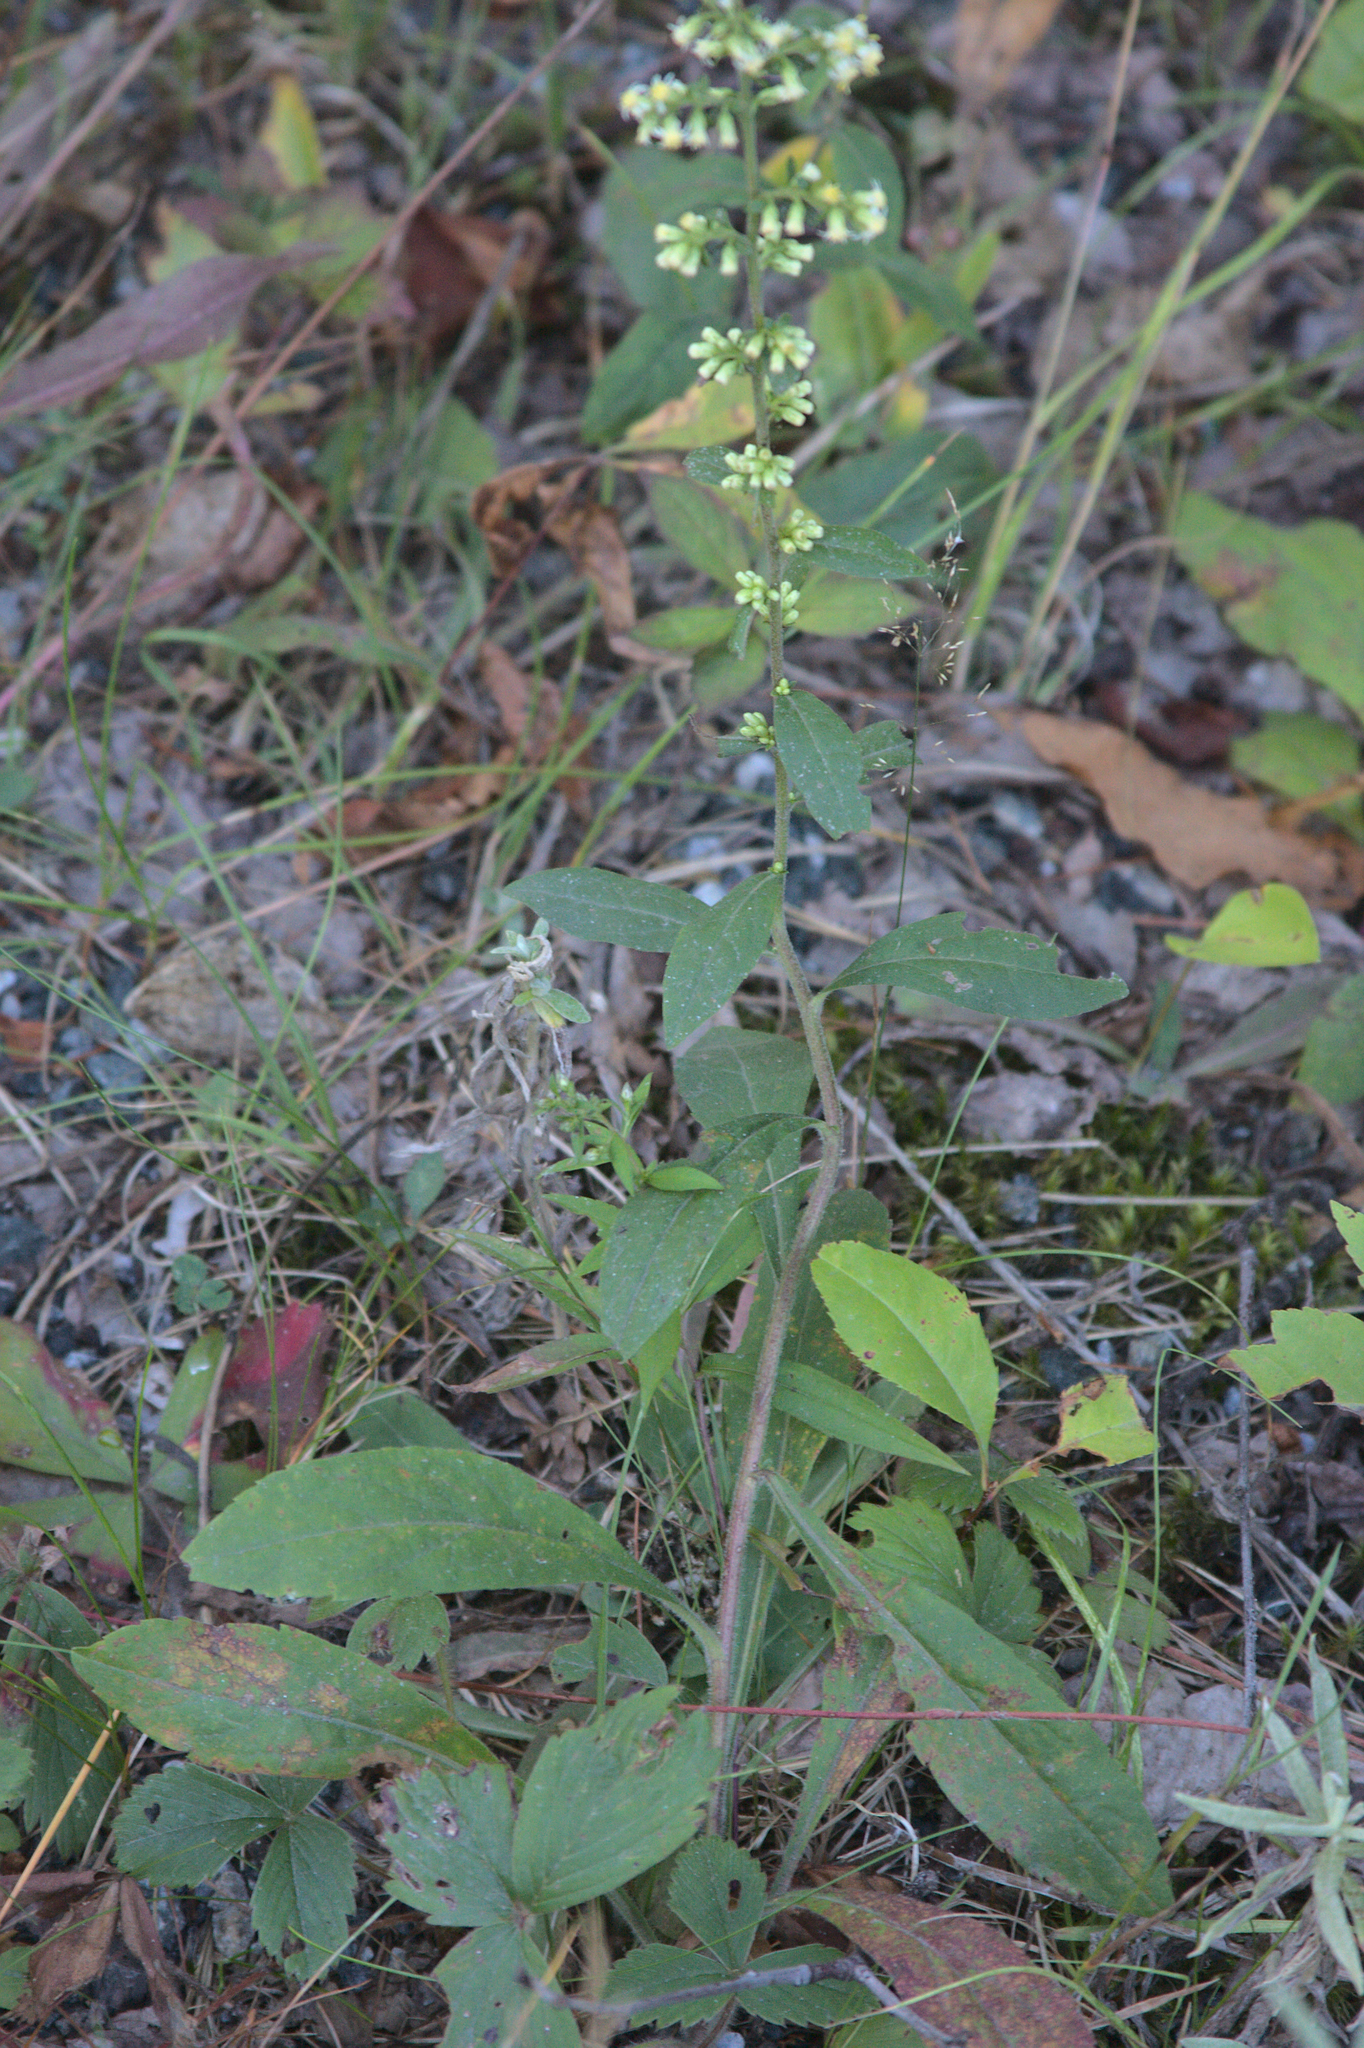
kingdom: Plantae
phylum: Tracheophyta
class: Magnoliopsida
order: Asterales
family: Asteraceae
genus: Solidago
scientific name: Solidago bicolor
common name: Silverrod
